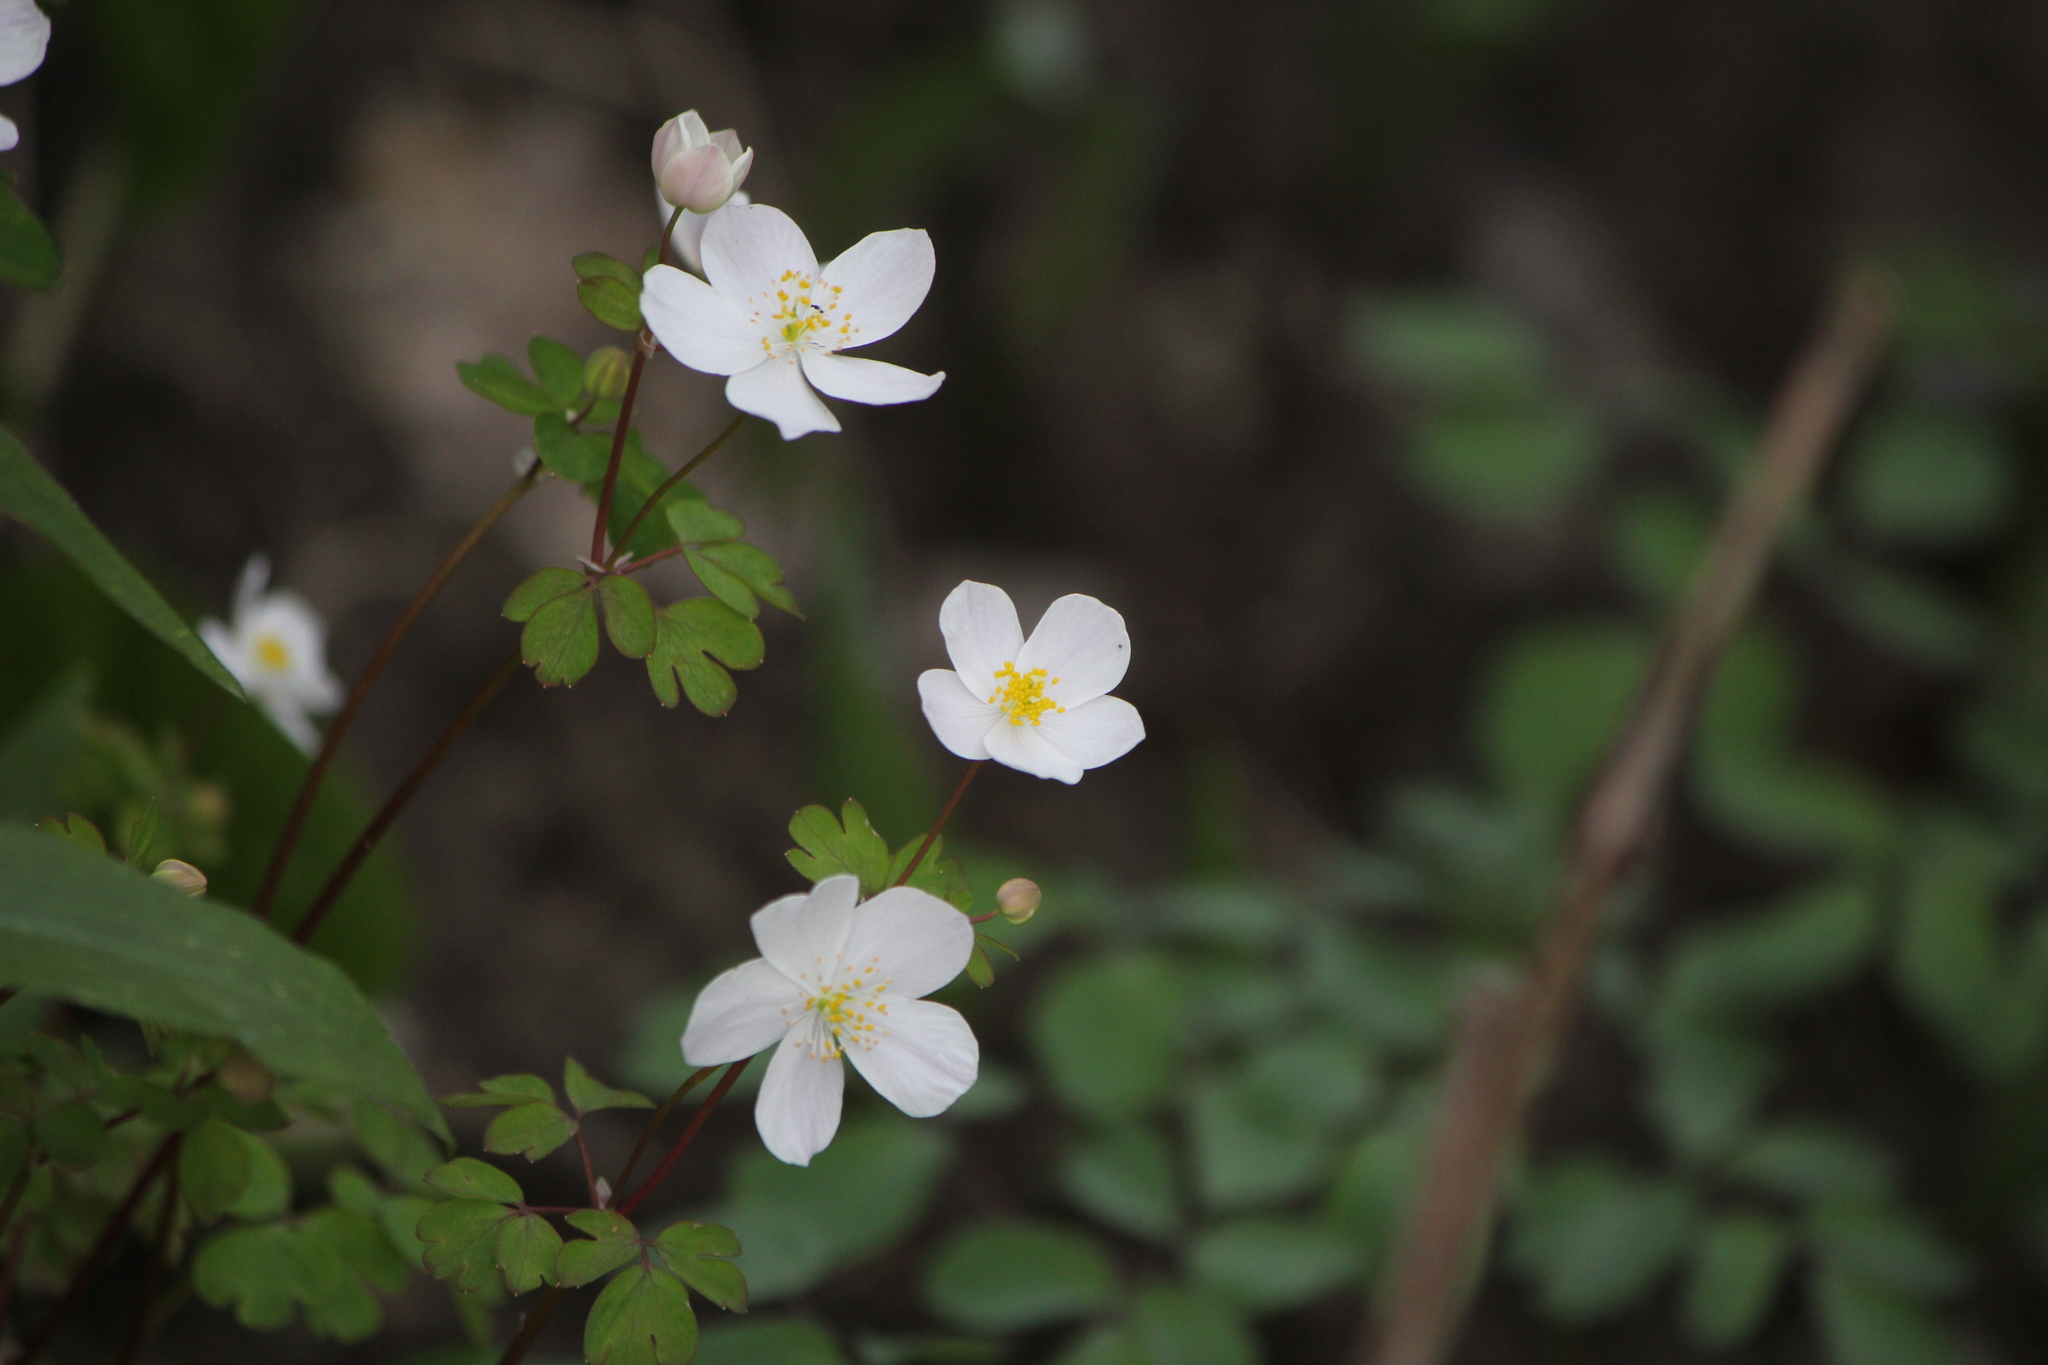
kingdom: Plantae
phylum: Tracheophyta
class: Magnoliopsida
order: Ranunculales
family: Ranunculaceae
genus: Enemion
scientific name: Enemion biternatum
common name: Eastern false rue-anemone
